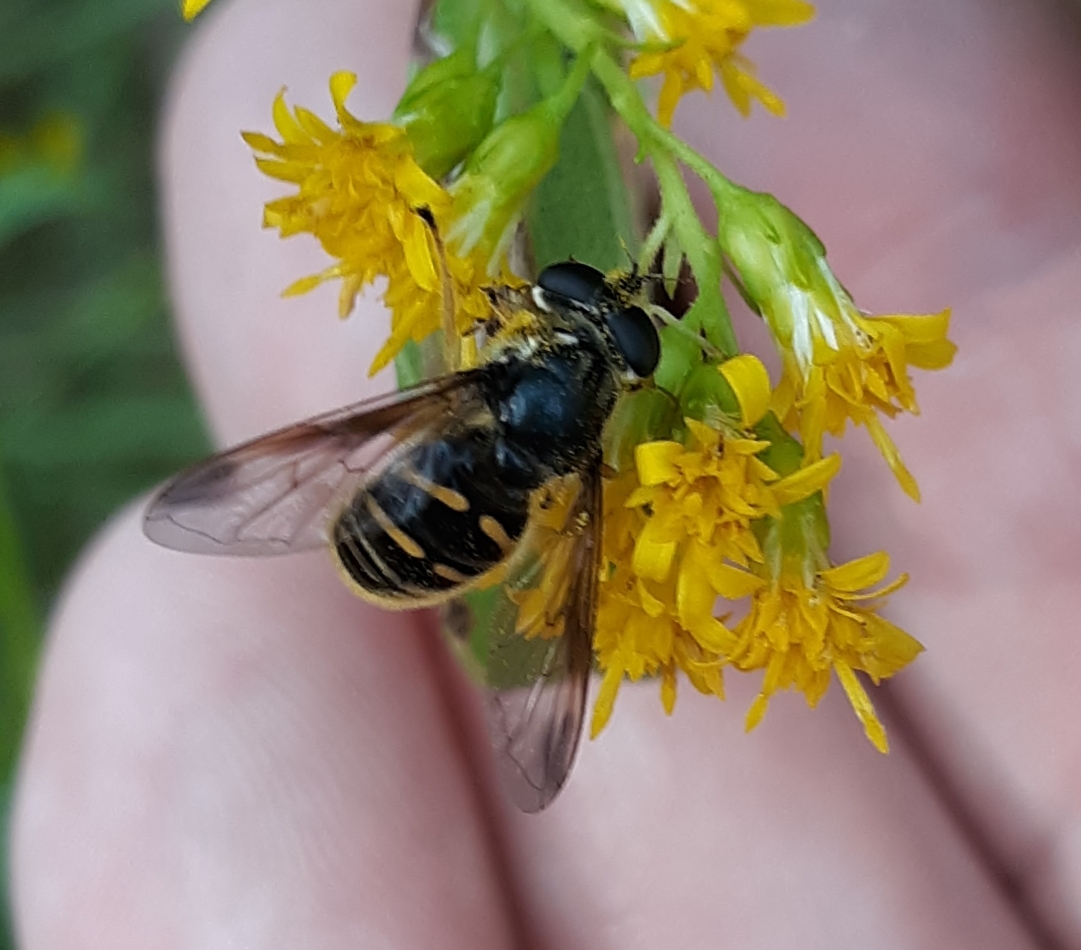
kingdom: Animalia
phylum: Arthropoda
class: Insecta
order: Diptera
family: Syrphidae
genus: Sericomyia
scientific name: Sericomyia chrysotoxoides
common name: Oblique-banded pond fly
